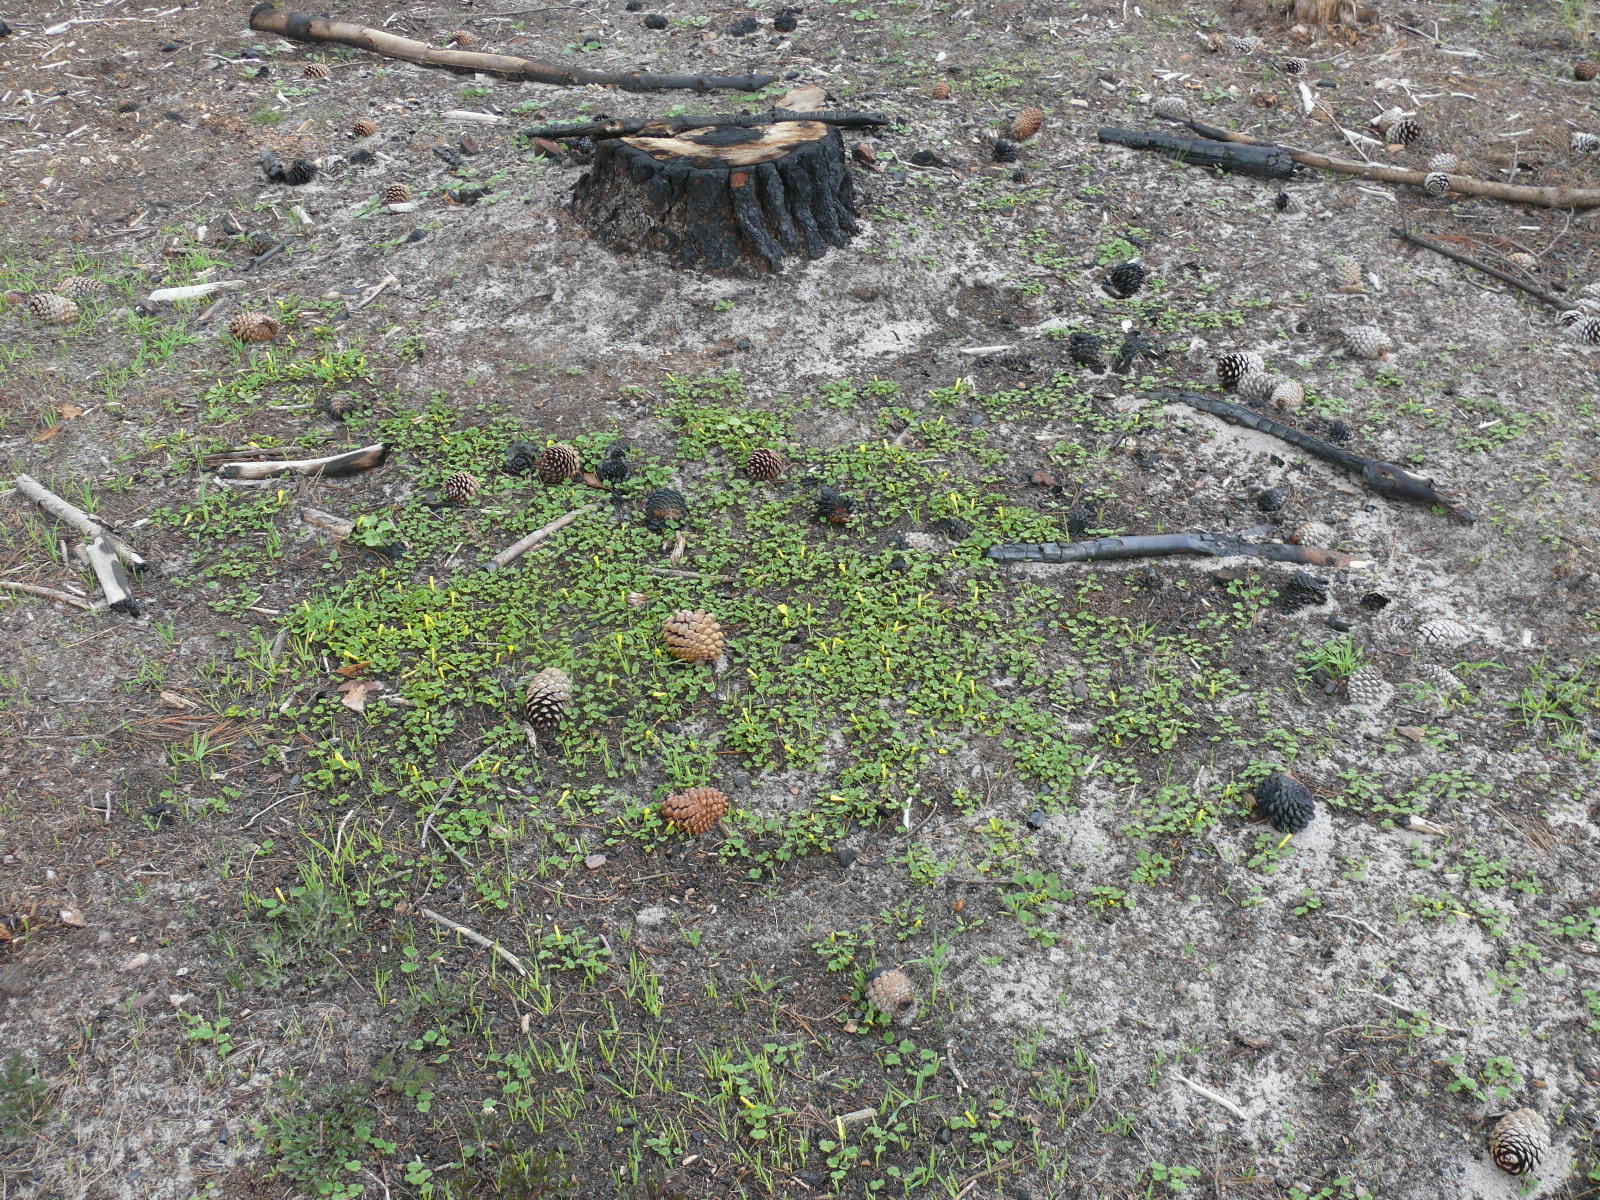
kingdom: Plantae
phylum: Tracheophyta
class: Magnoliopsida
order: Oxalidales
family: Oxalidaceae
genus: Oxalis
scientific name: Oxalis luteola
